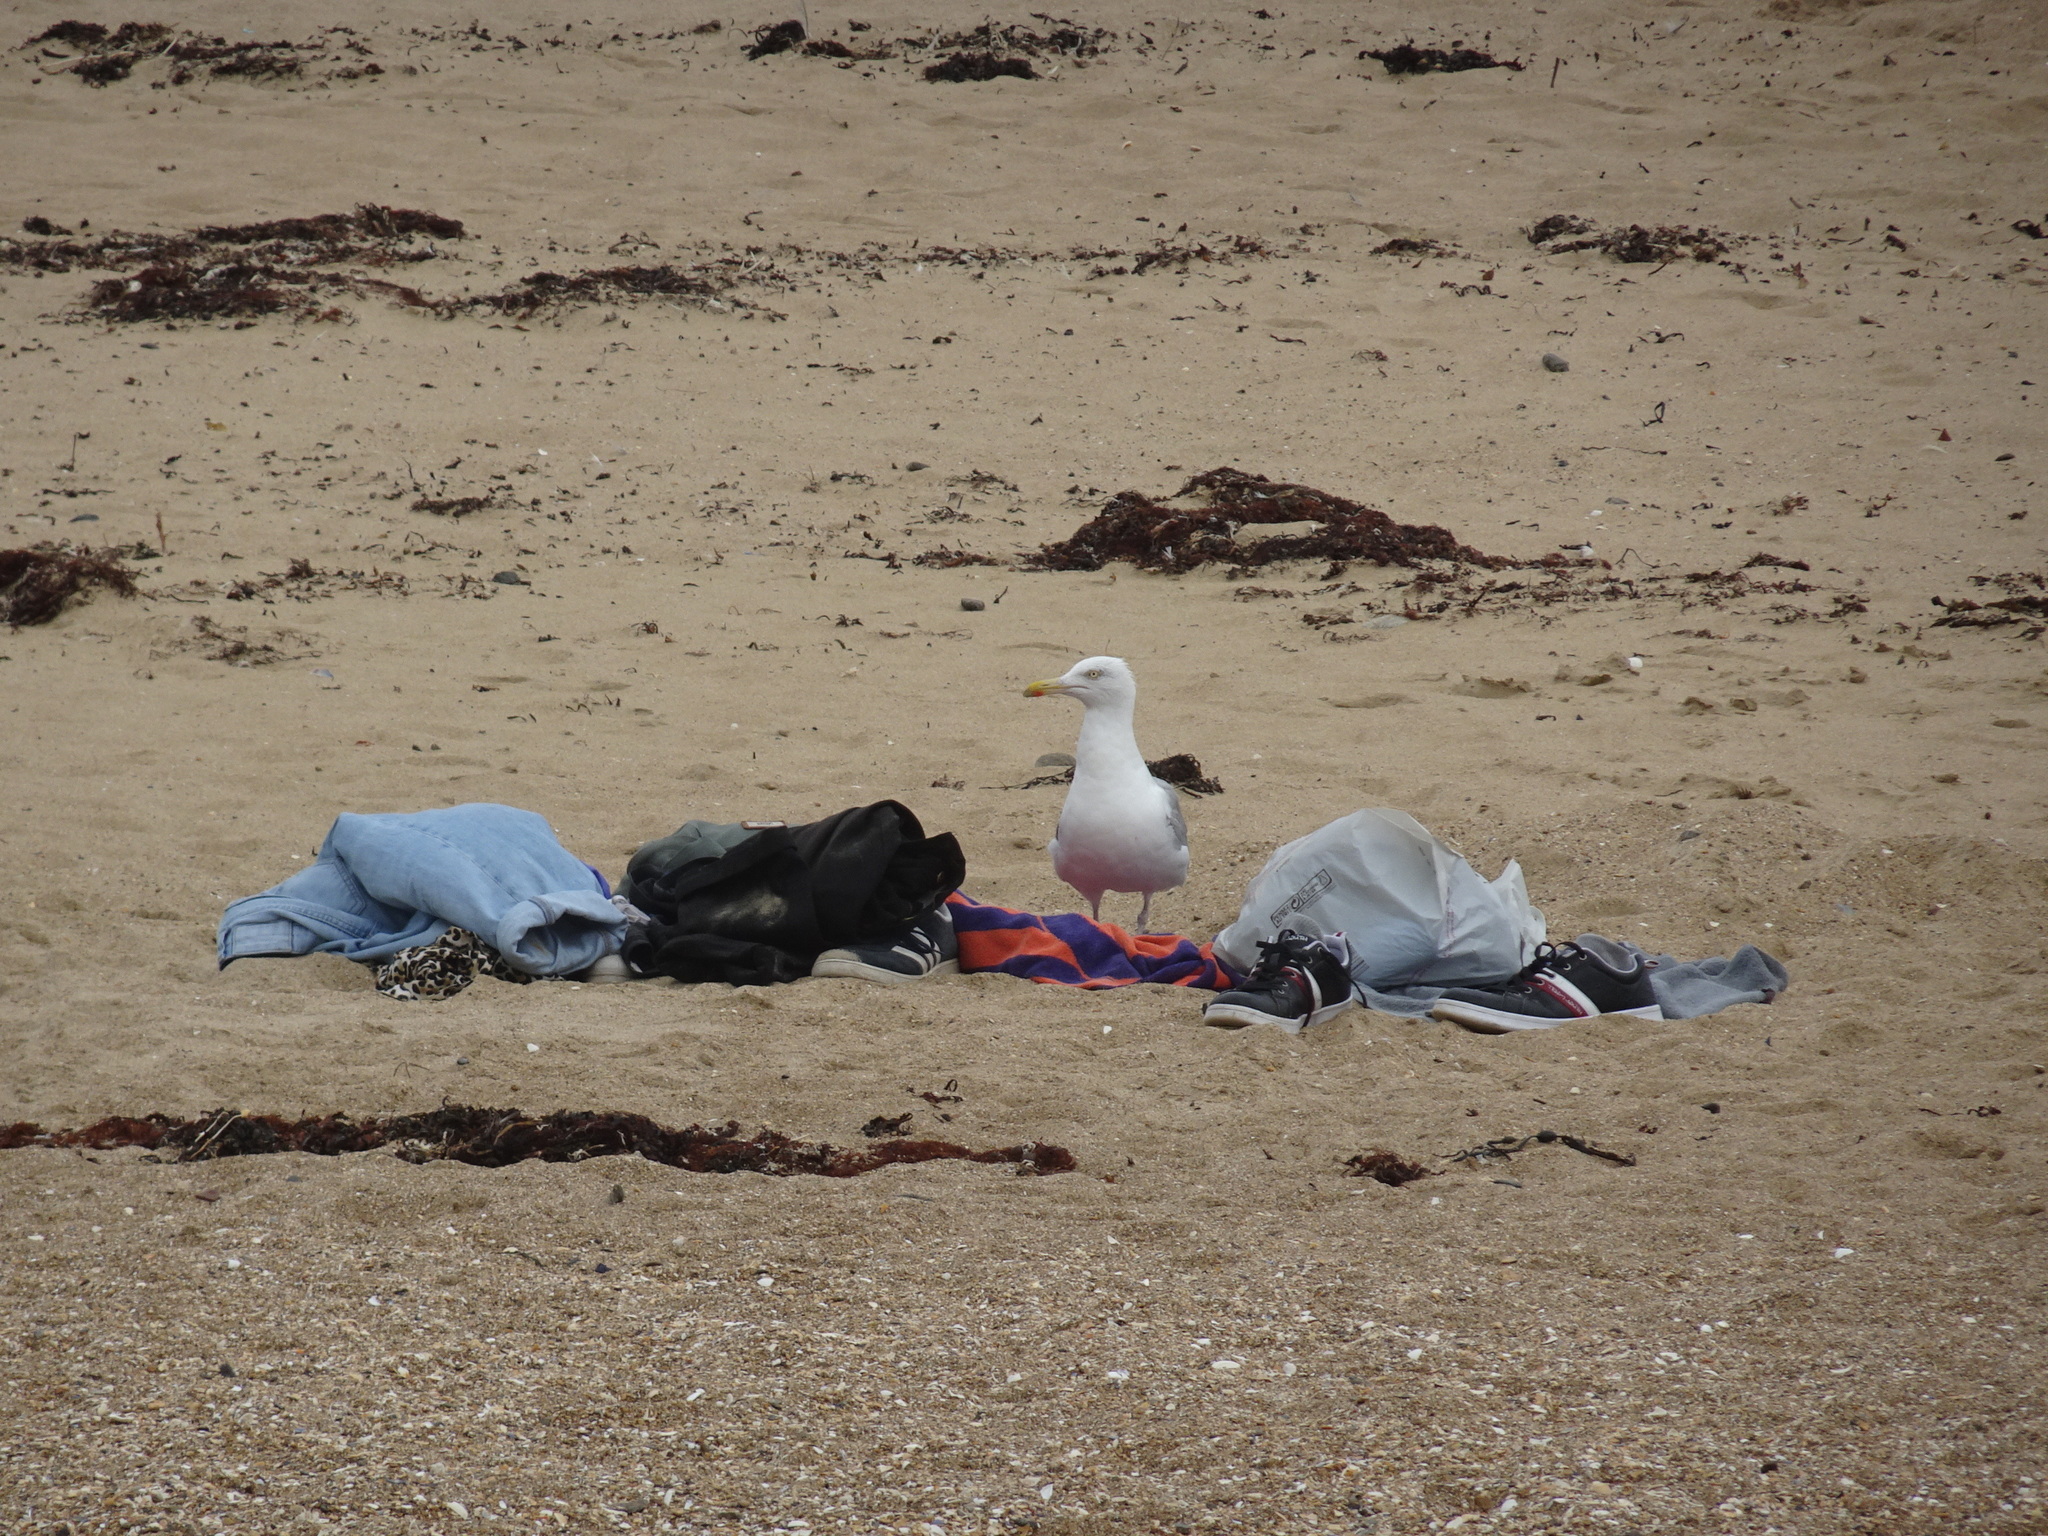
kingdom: Animalia
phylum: Chordata
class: Aves
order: Charadriiformes
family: Laridae
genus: Larus
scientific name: Larus argentatus
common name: Herring gull
